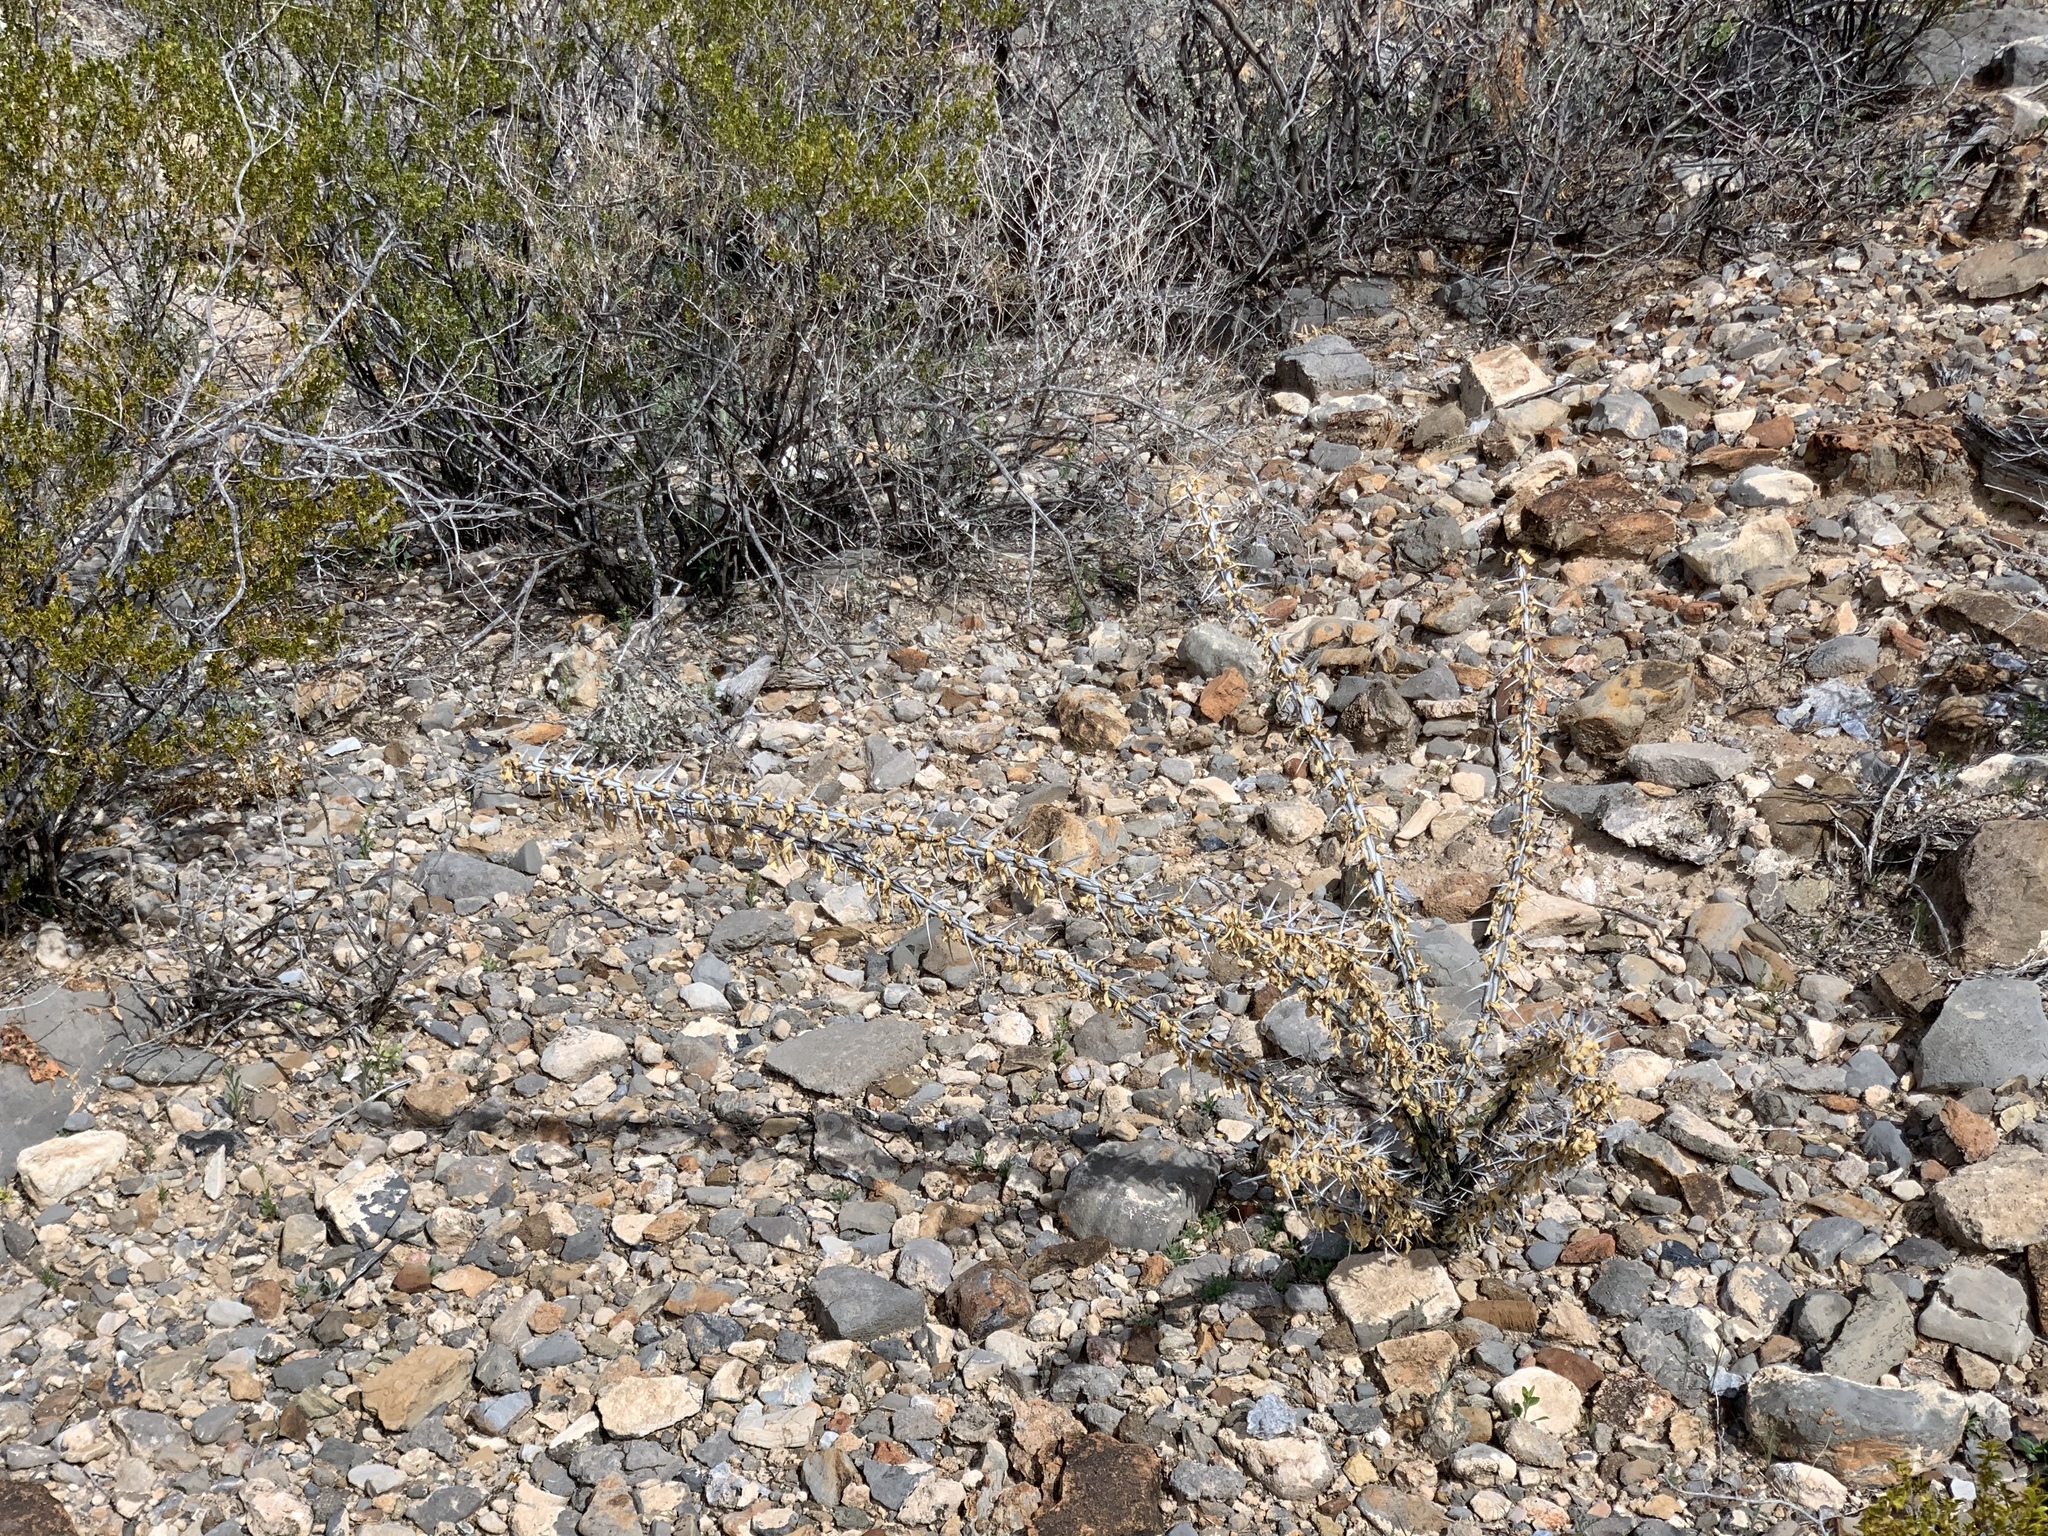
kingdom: Plantae
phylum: Tracheophyta
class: Magnoliopsida
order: Ericales
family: Fouquieriaceae
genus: Fouquieria
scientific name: Fouquieria splendens
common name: Vine-cactus
